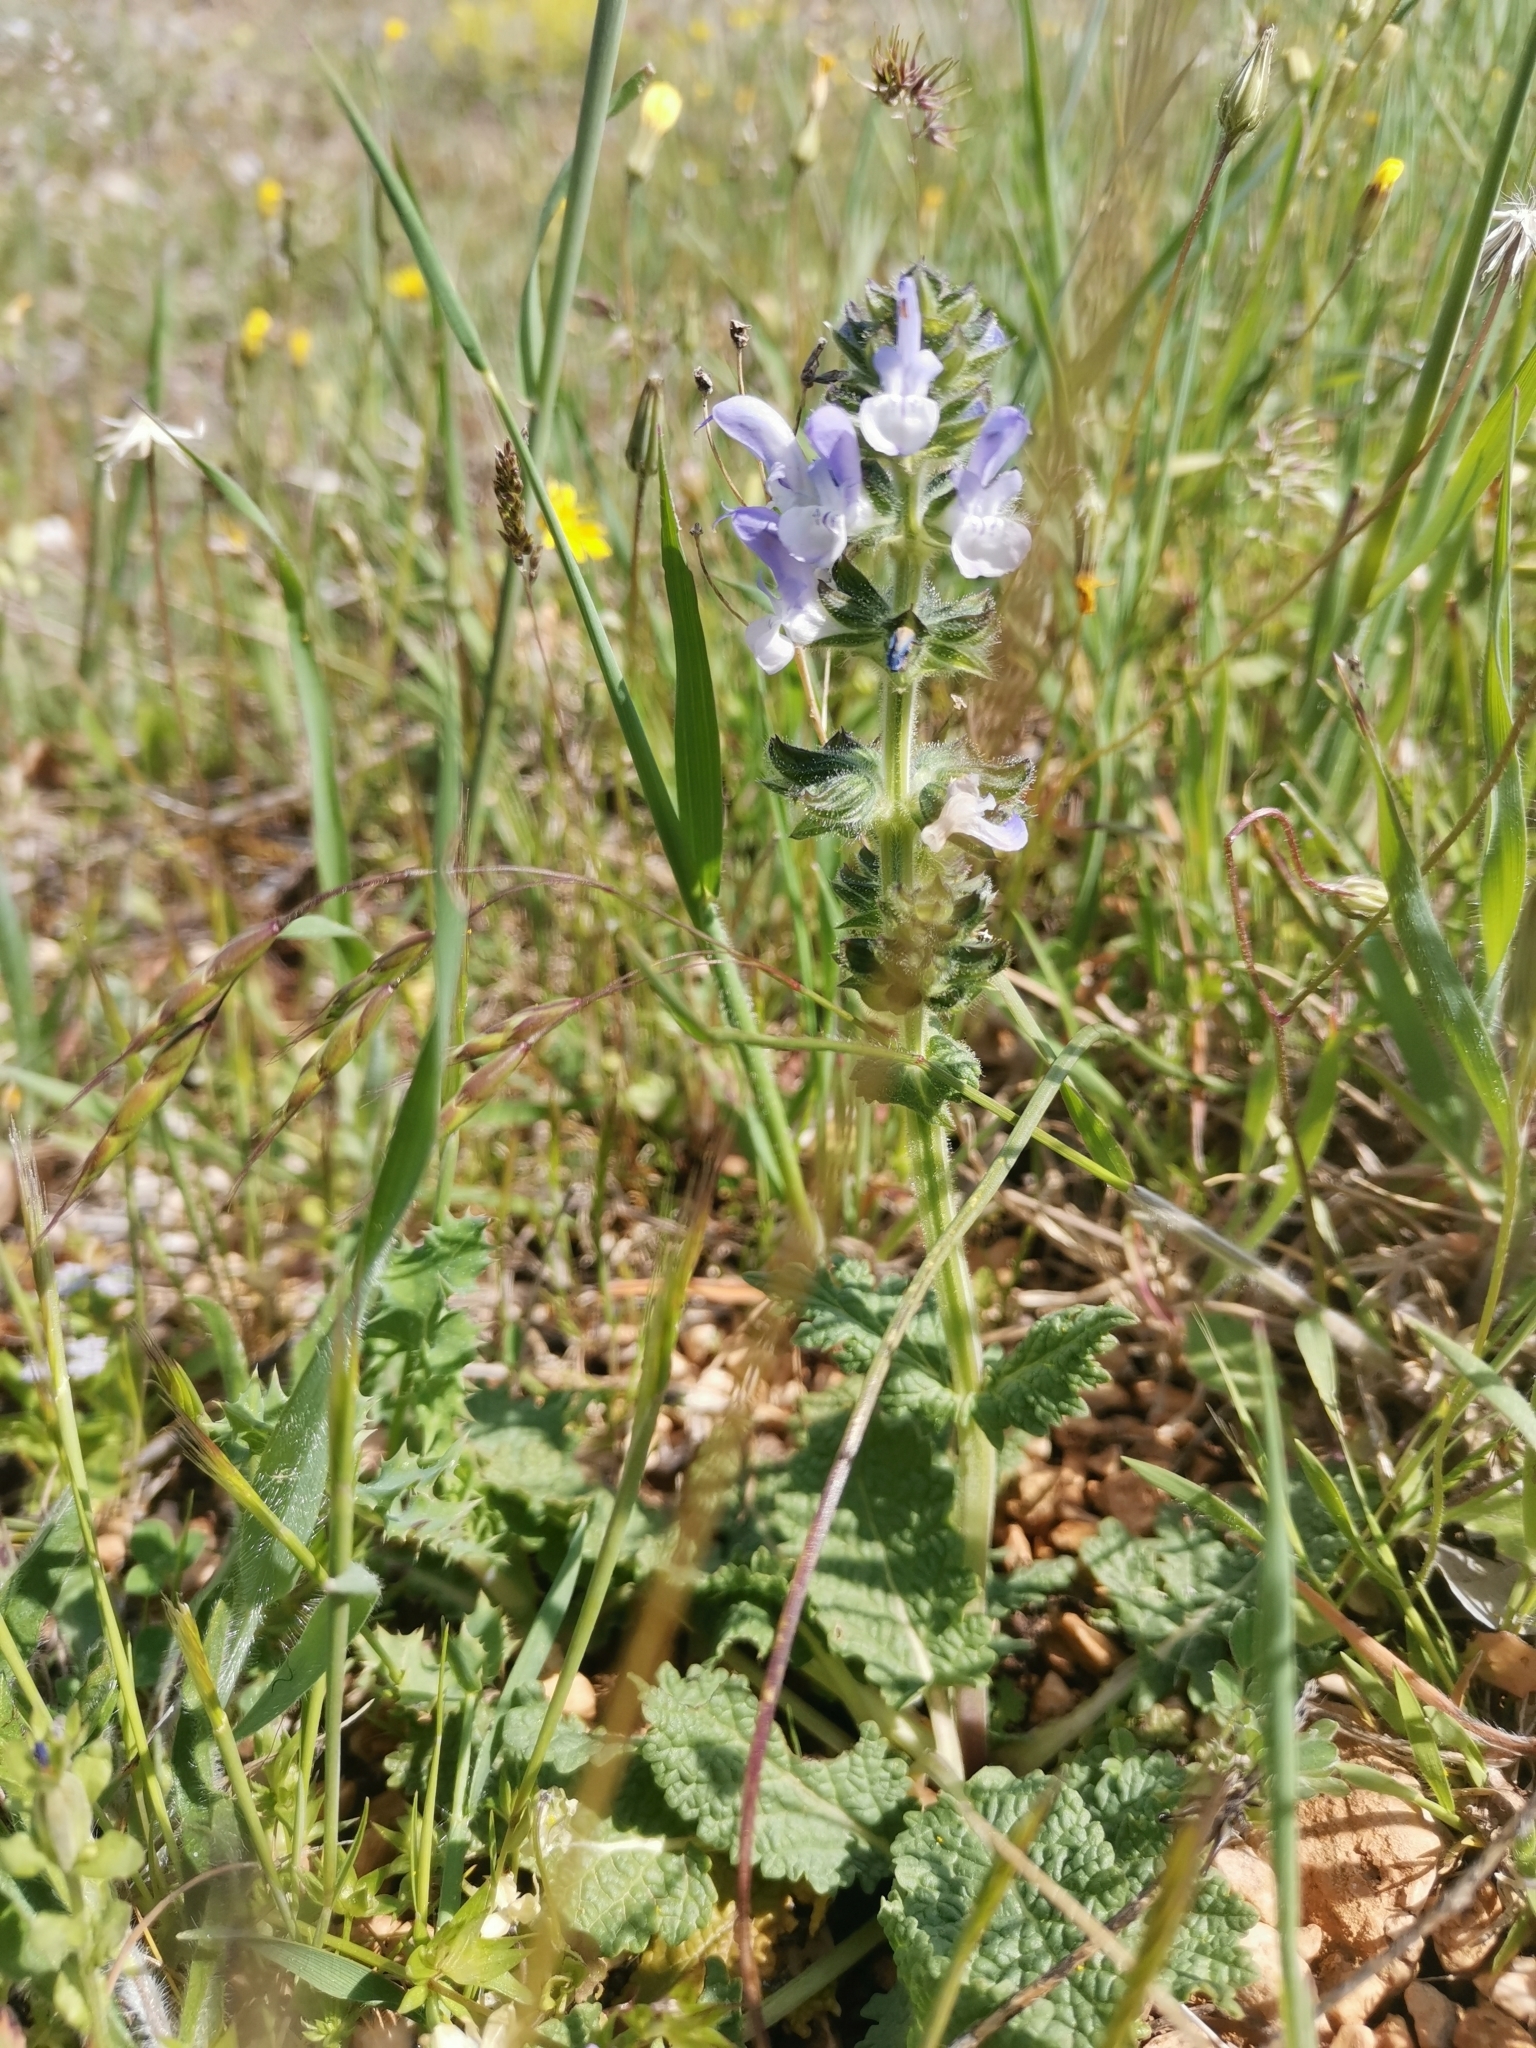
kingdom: Plantae
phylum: Tracheophyta
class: Magnoliopsida
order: Lamiales
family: Lamiaceae
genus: Salvia
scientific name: Salvia clandestina
